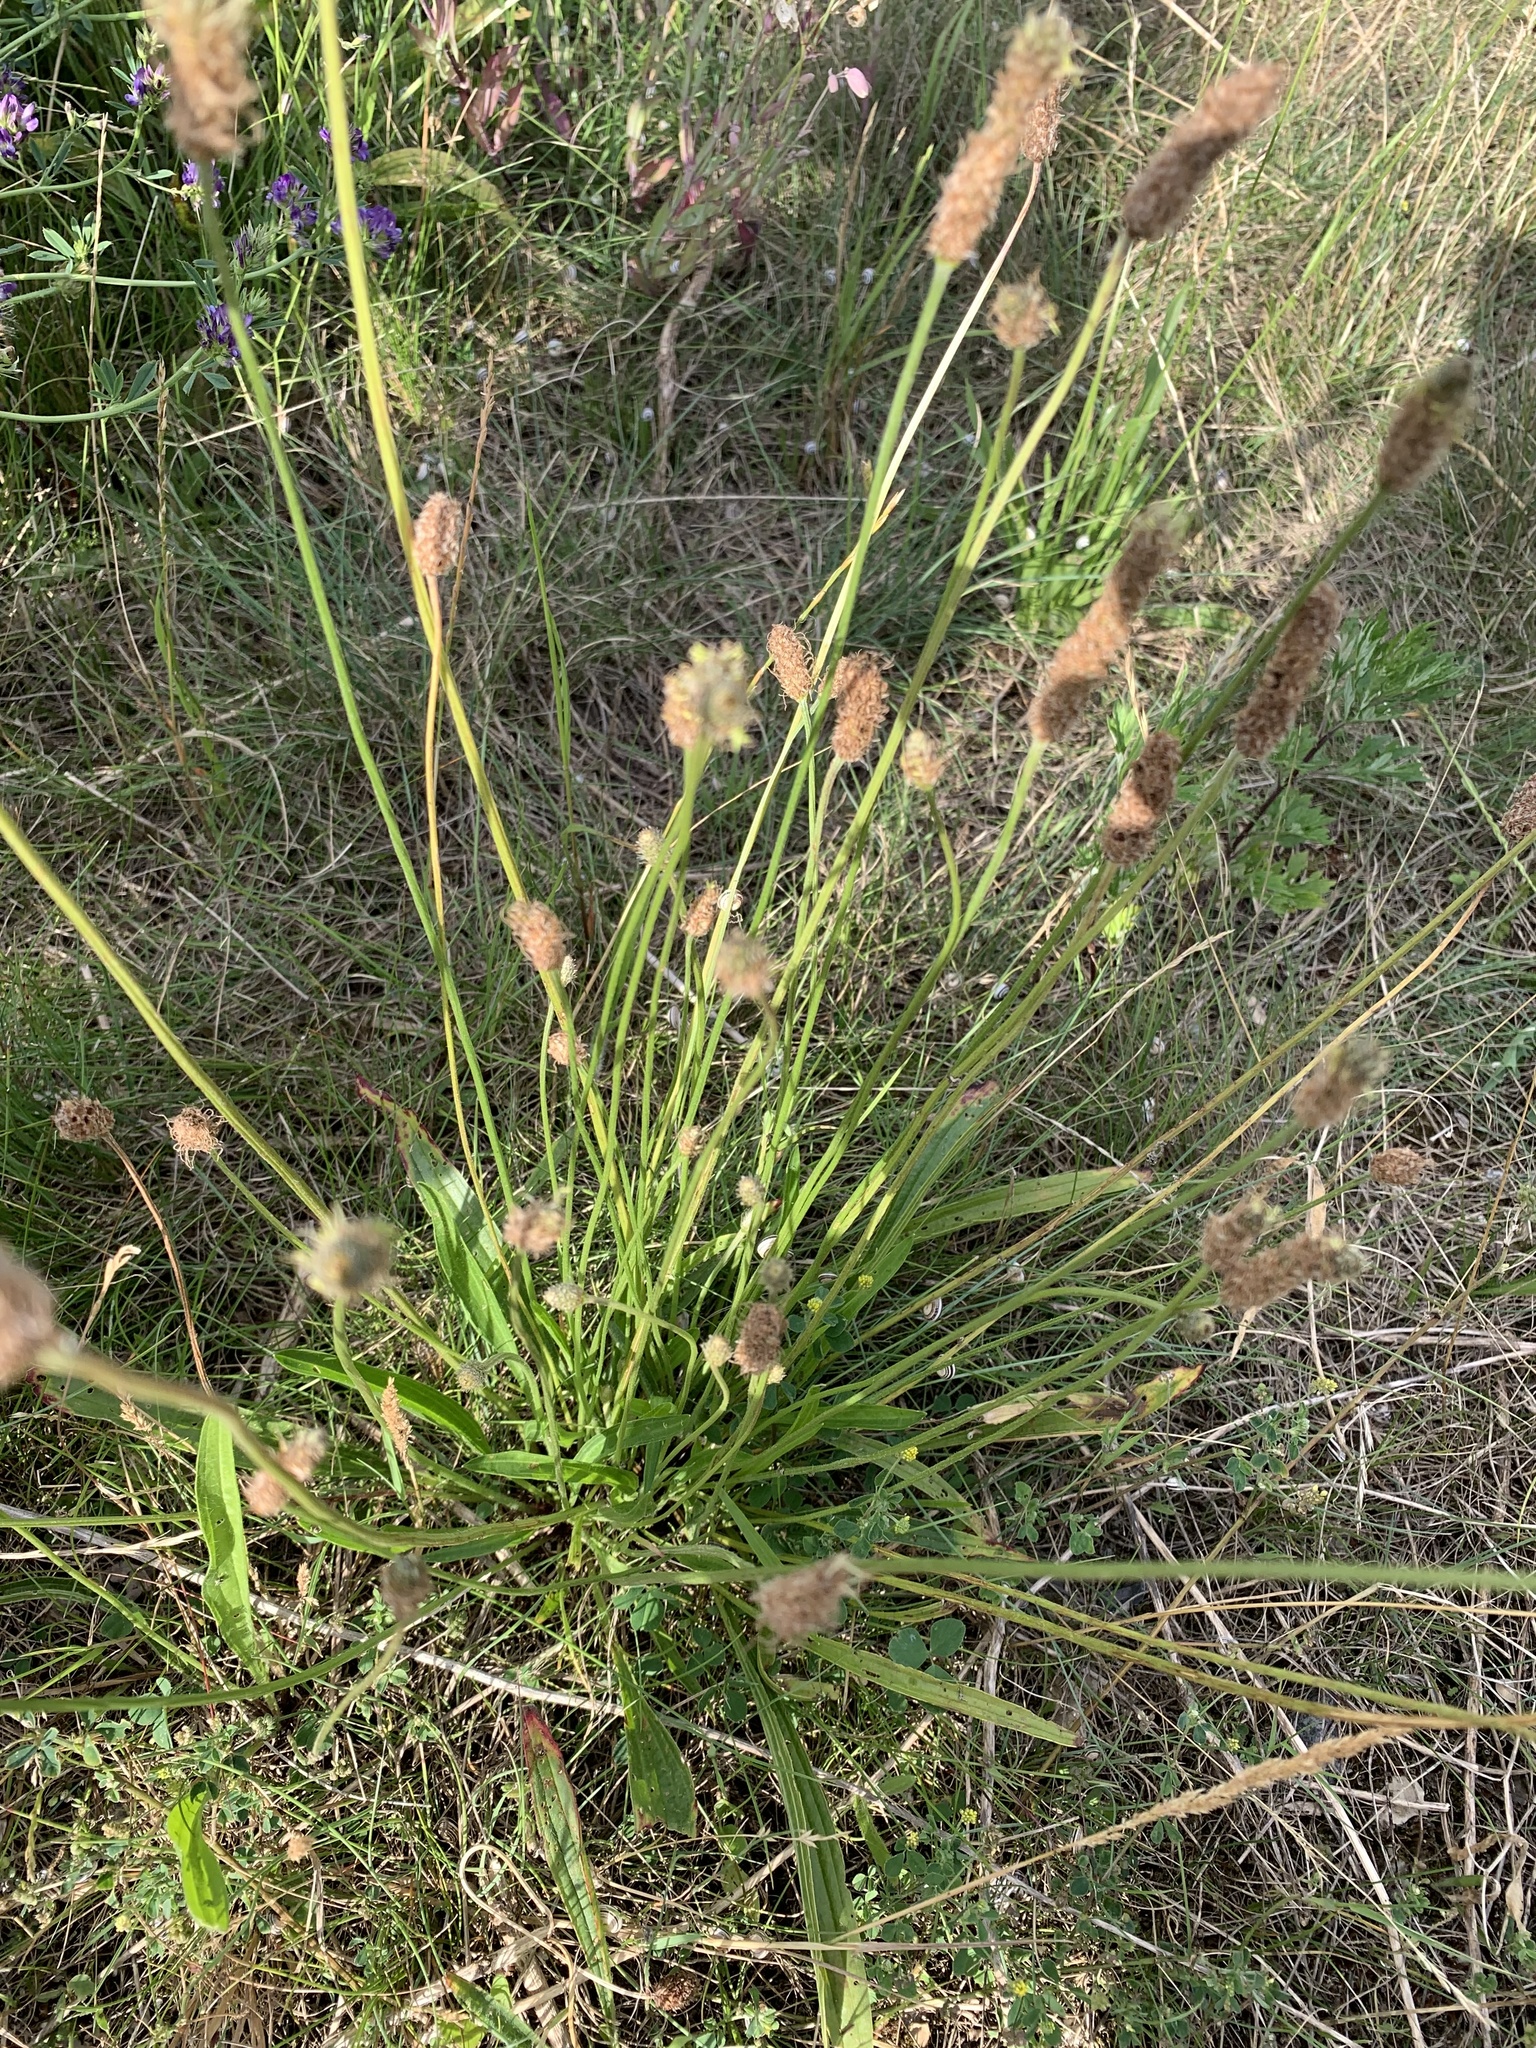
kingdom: Plantae
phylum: Tracheophyta
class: Magnoliopsida
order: Lamiales
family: Plantaginaceae
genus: Plantago
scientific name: Plantago lanceolata
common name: Ribwort plantain
